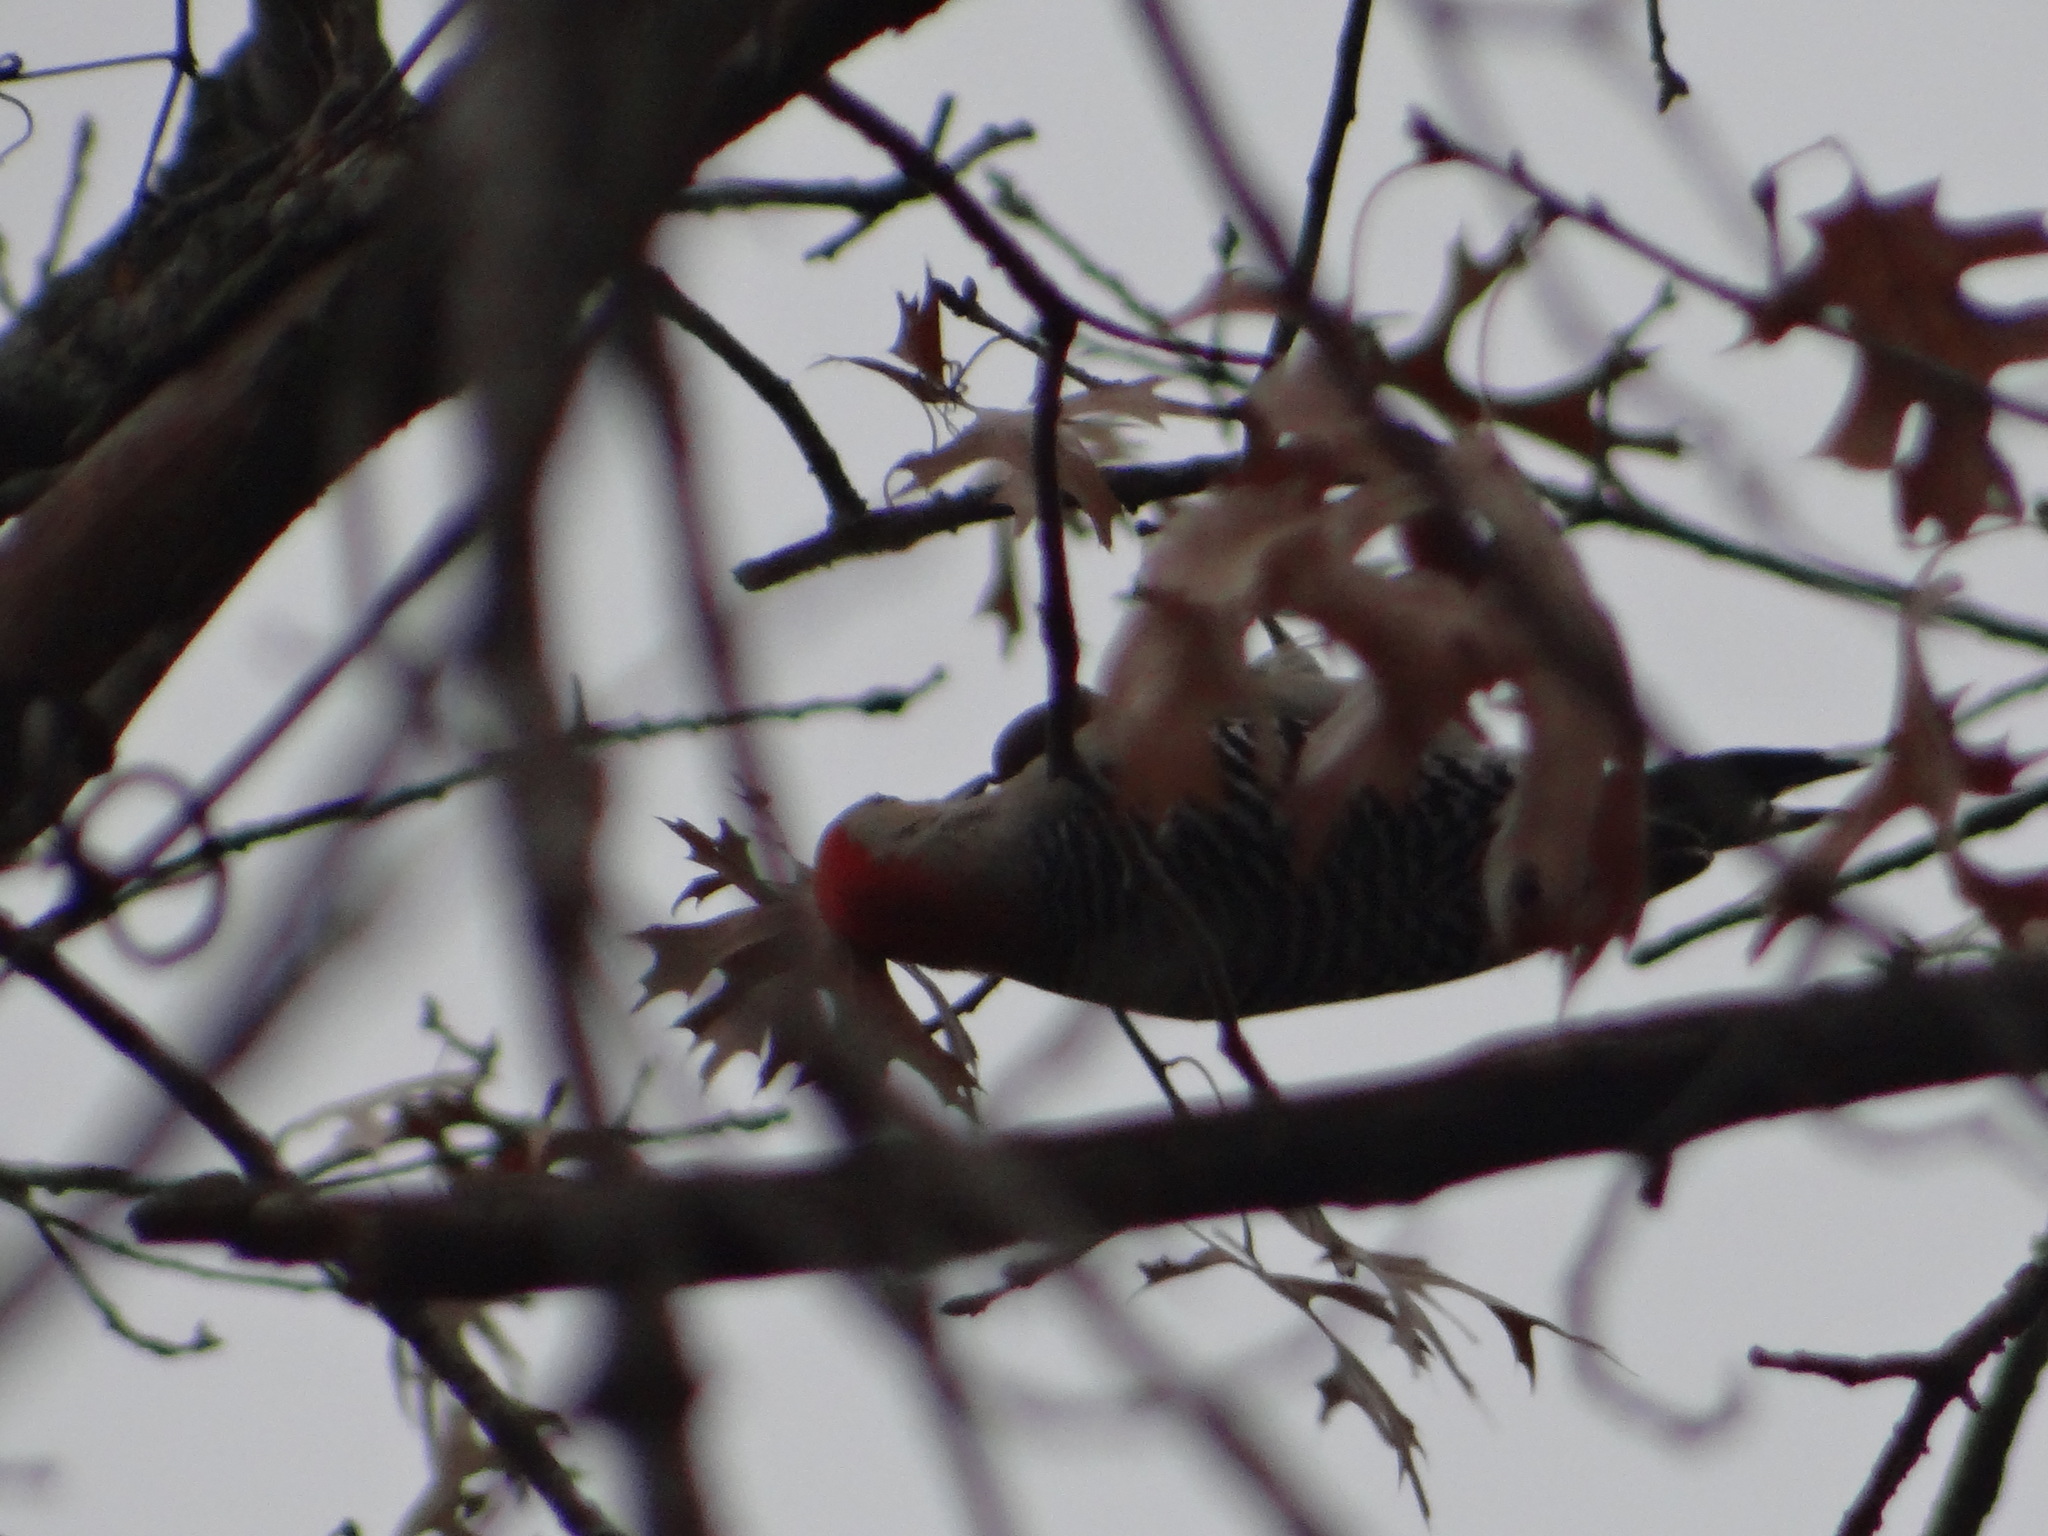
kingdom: Animalia
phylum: Chordata
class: Aves
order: Piciformes
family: Picidae
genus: Melanerpes
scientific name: Melanerpes carolinus
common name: Red-bellied woodpecker
